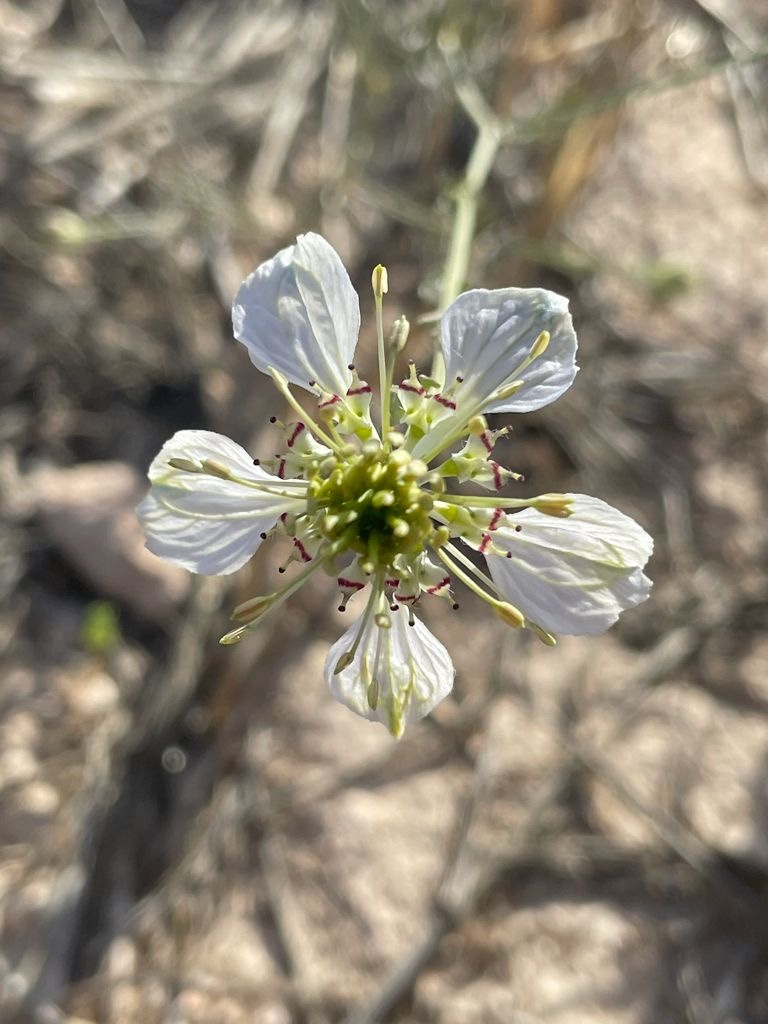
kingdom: Plantae
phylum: Tracheophyta
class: Magnoliopsida
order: Ranunculales
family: Ranunculaceae
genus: Nigella
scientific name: Nigella gallica
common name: Pale fennel-flower
